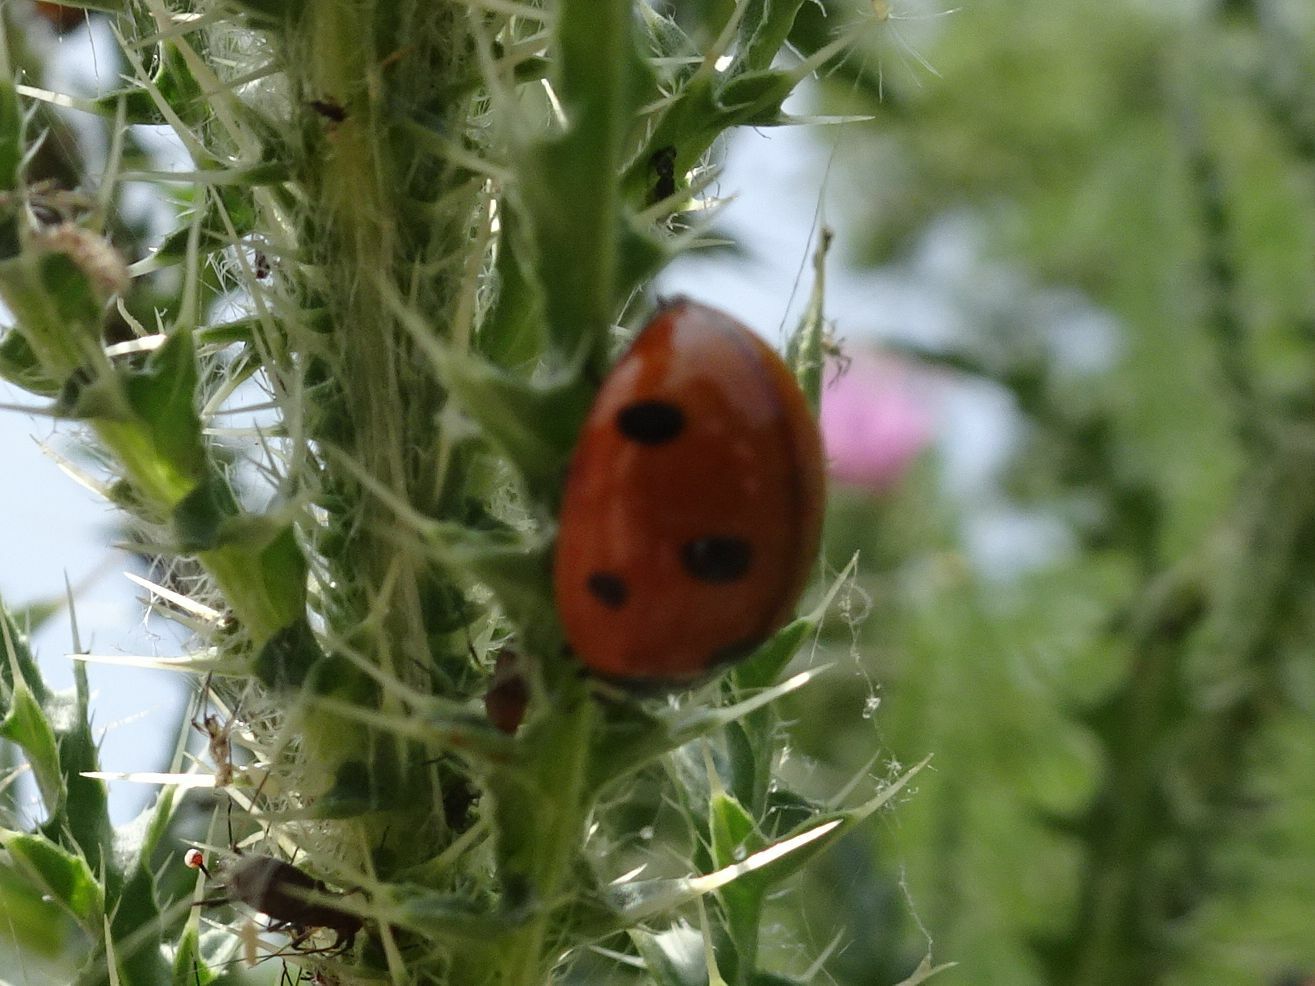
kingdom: Animalia
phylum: Arthropoda
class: Insecta
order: Coleoptera
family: Coccinellidae
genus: Coccinella
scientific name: Coccinella septempunctata
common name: Sevenspotted lady beetle
